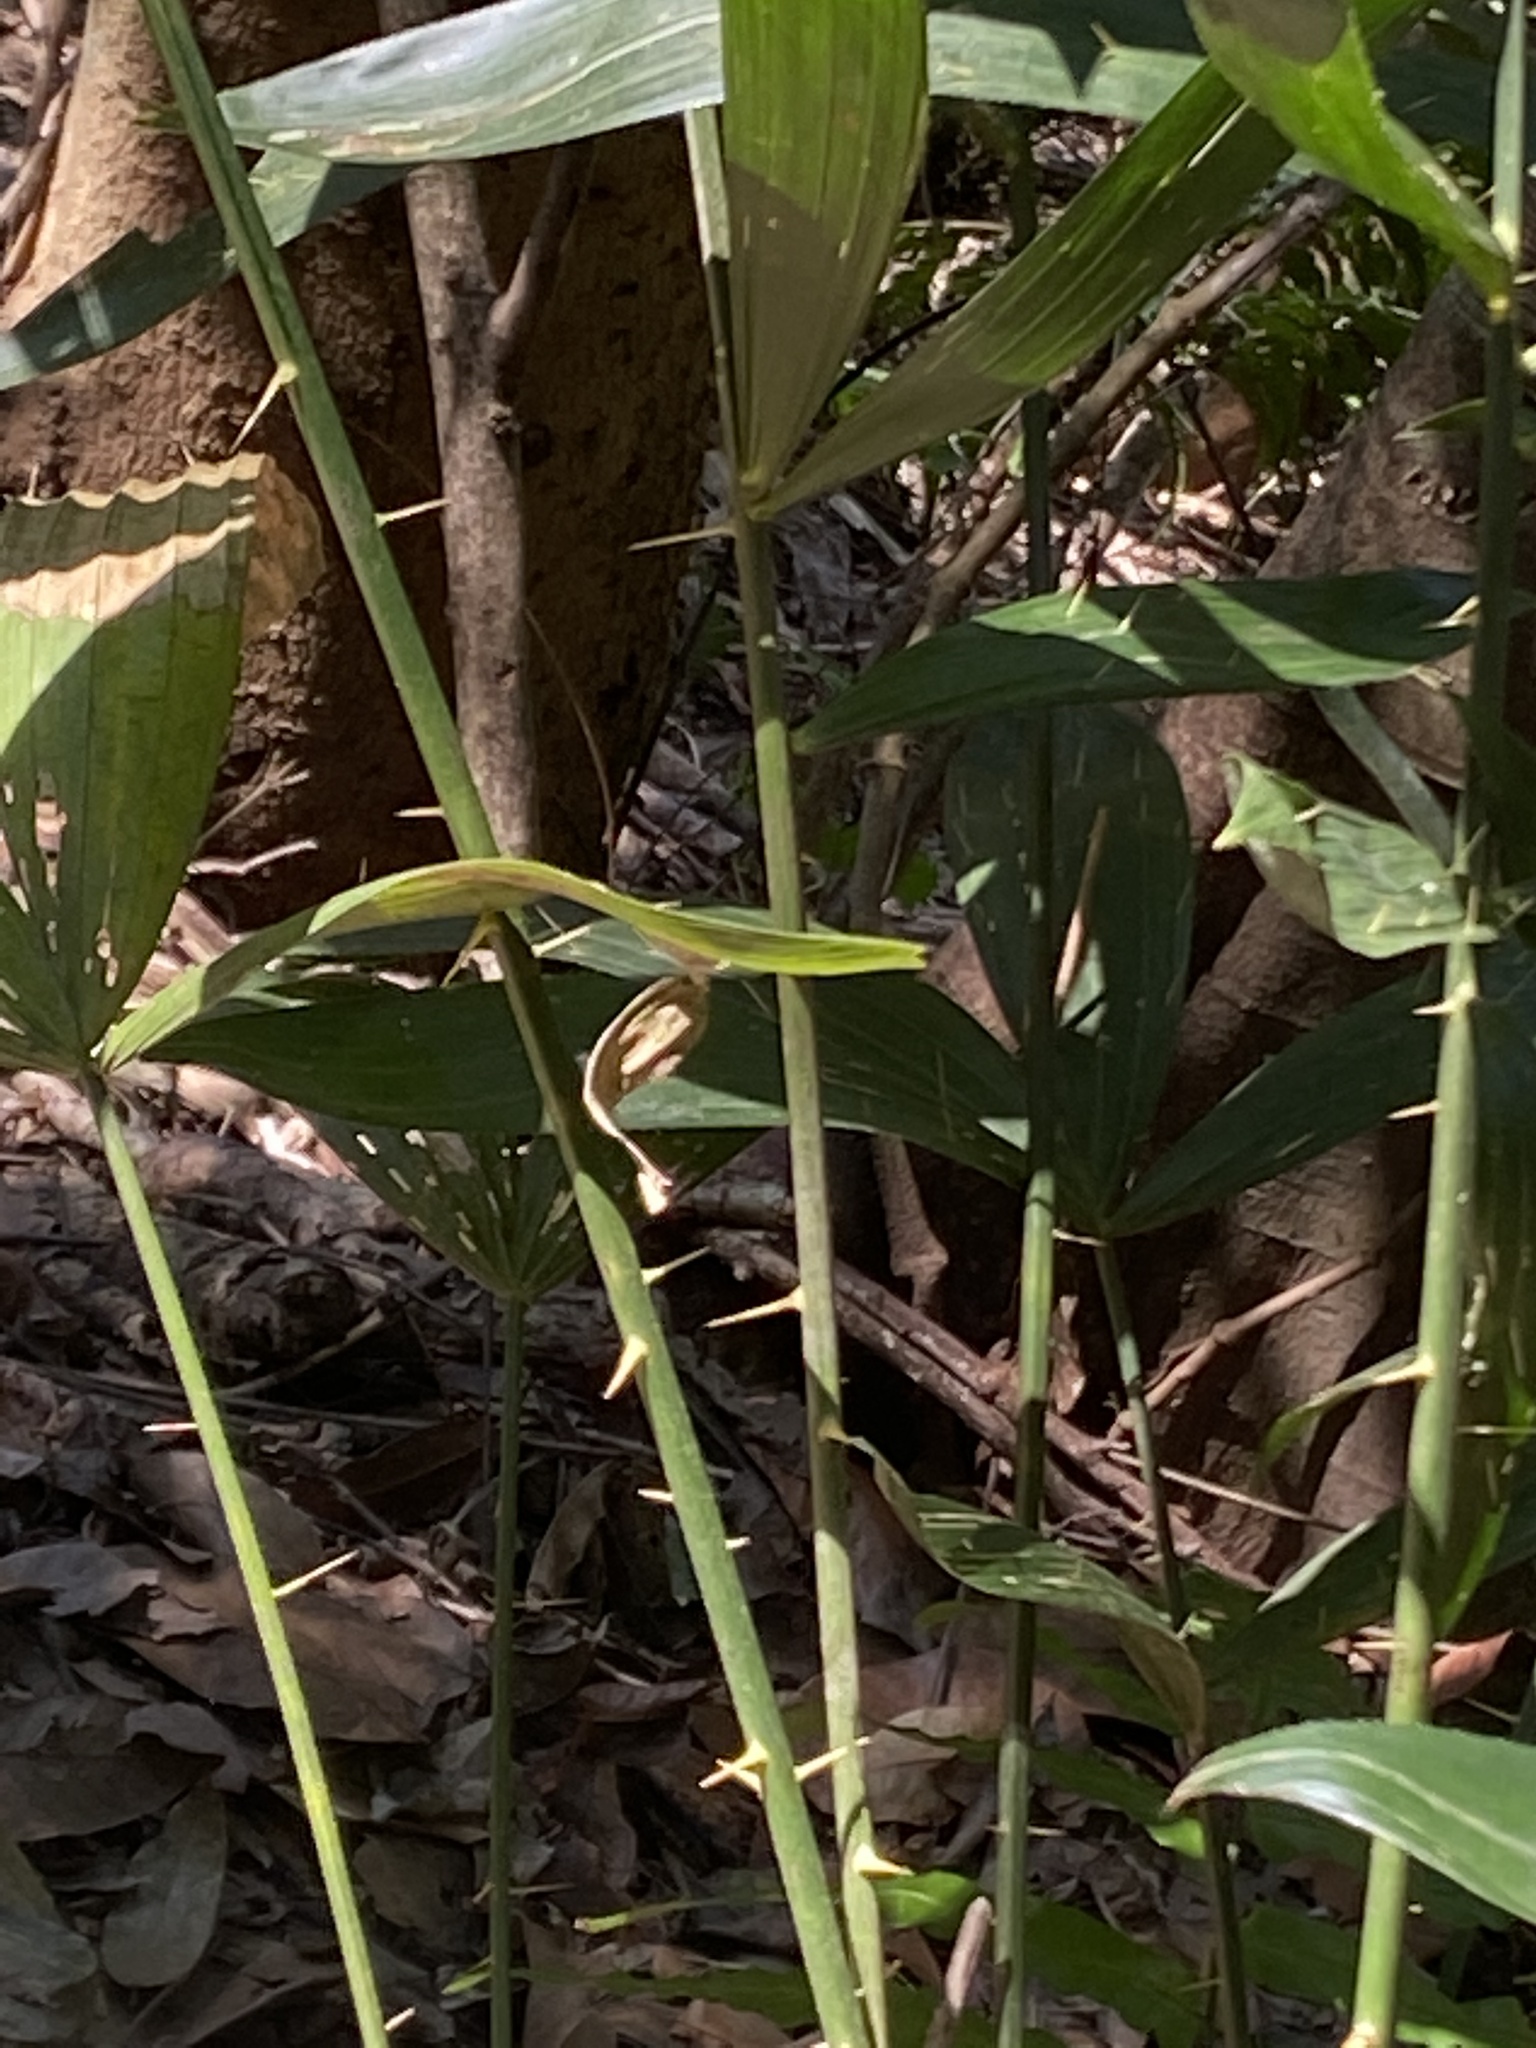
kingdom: Plantae
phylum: Tracheophyta
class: Liliopsida
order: Arecales
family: Arecaceae
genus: Calamus
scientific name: Calamus formosanus
